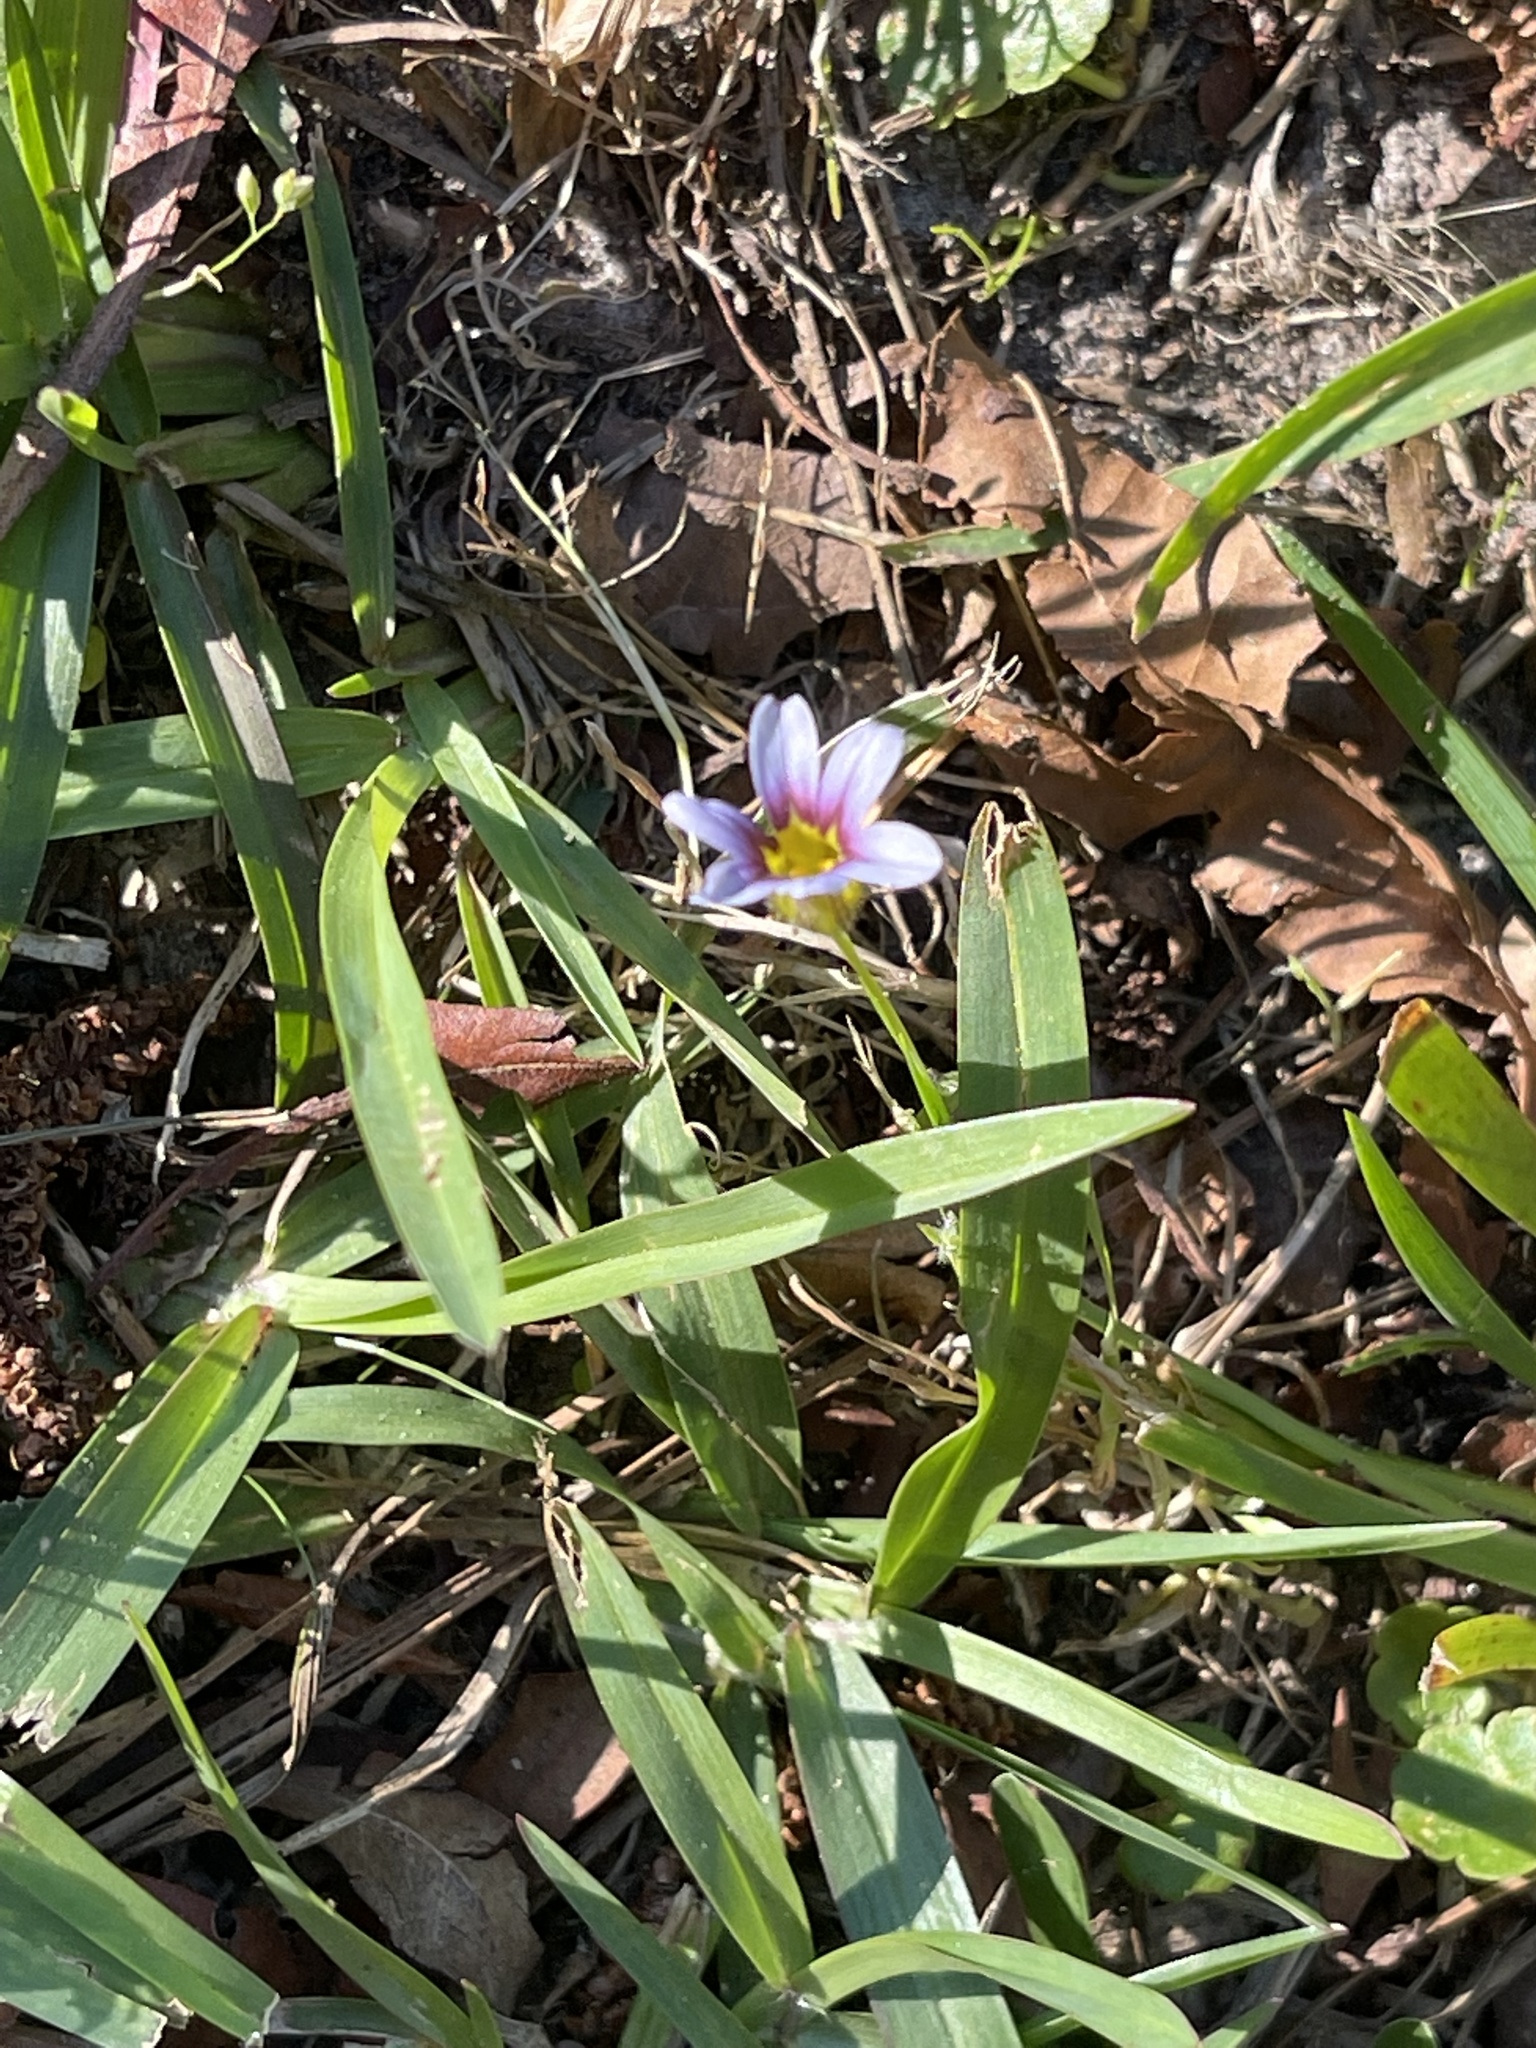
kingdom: Plantae
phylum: Tracheophyta
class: Liliopsida
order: Asparagales
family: Iridaceae
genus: Sisyrinchium
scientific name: Sisyrinchium micranthum
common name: Bermuda pigroot
